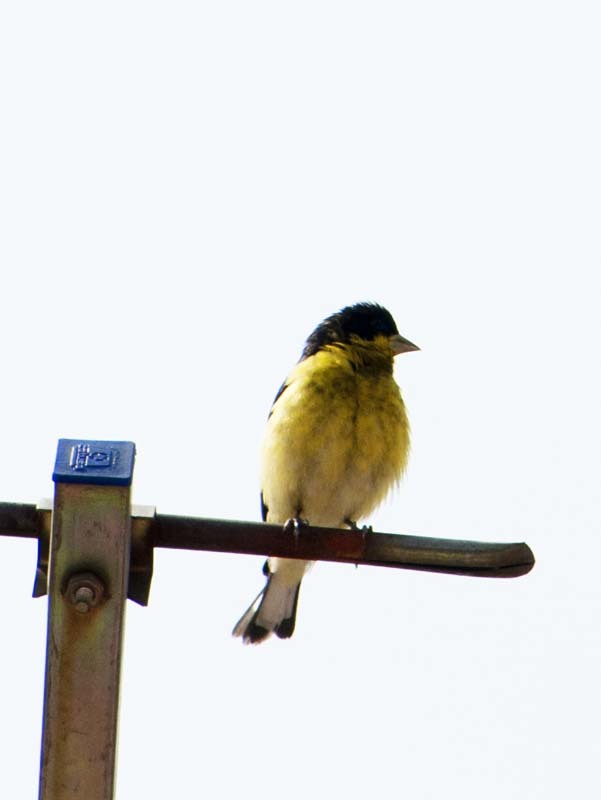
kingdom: Animalia
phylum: Chordata
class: Aves
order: Passeriformes
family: Fringillidae
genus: Spinus
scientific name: Spinus psaltria
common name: Lesser goldfinch
